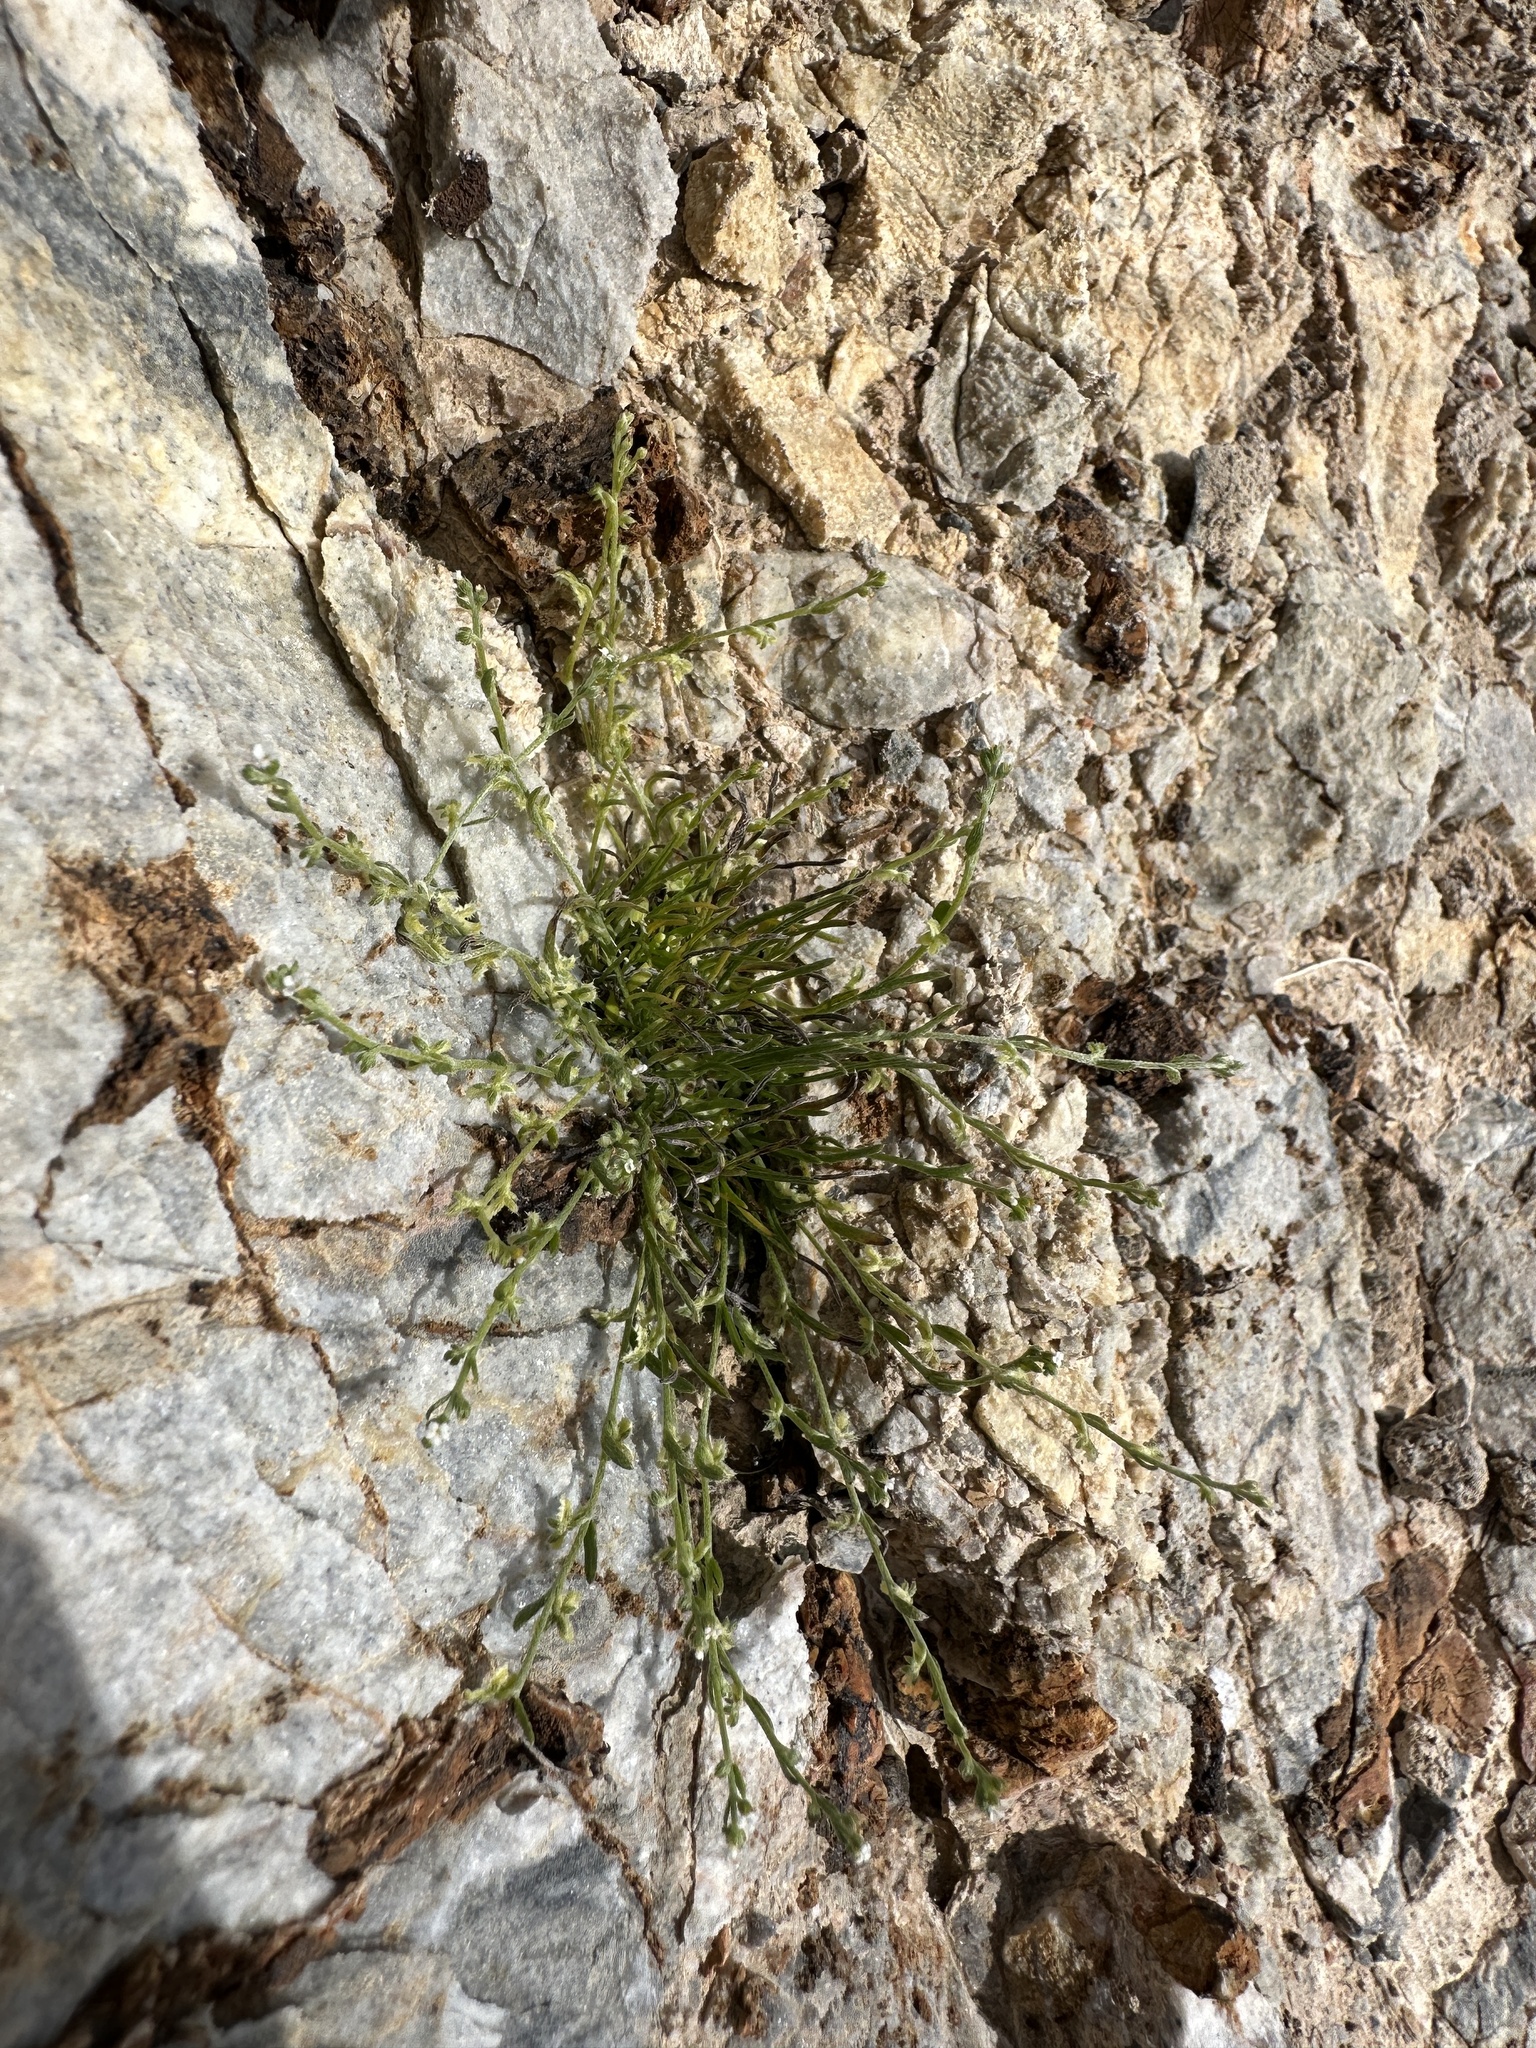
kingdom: Plantae
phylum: Tracheophyta
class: Magnoliopsida
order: Boraginales
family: Boraginaceae
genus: Pectocarya
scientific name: Pectocarya heterocarpa
